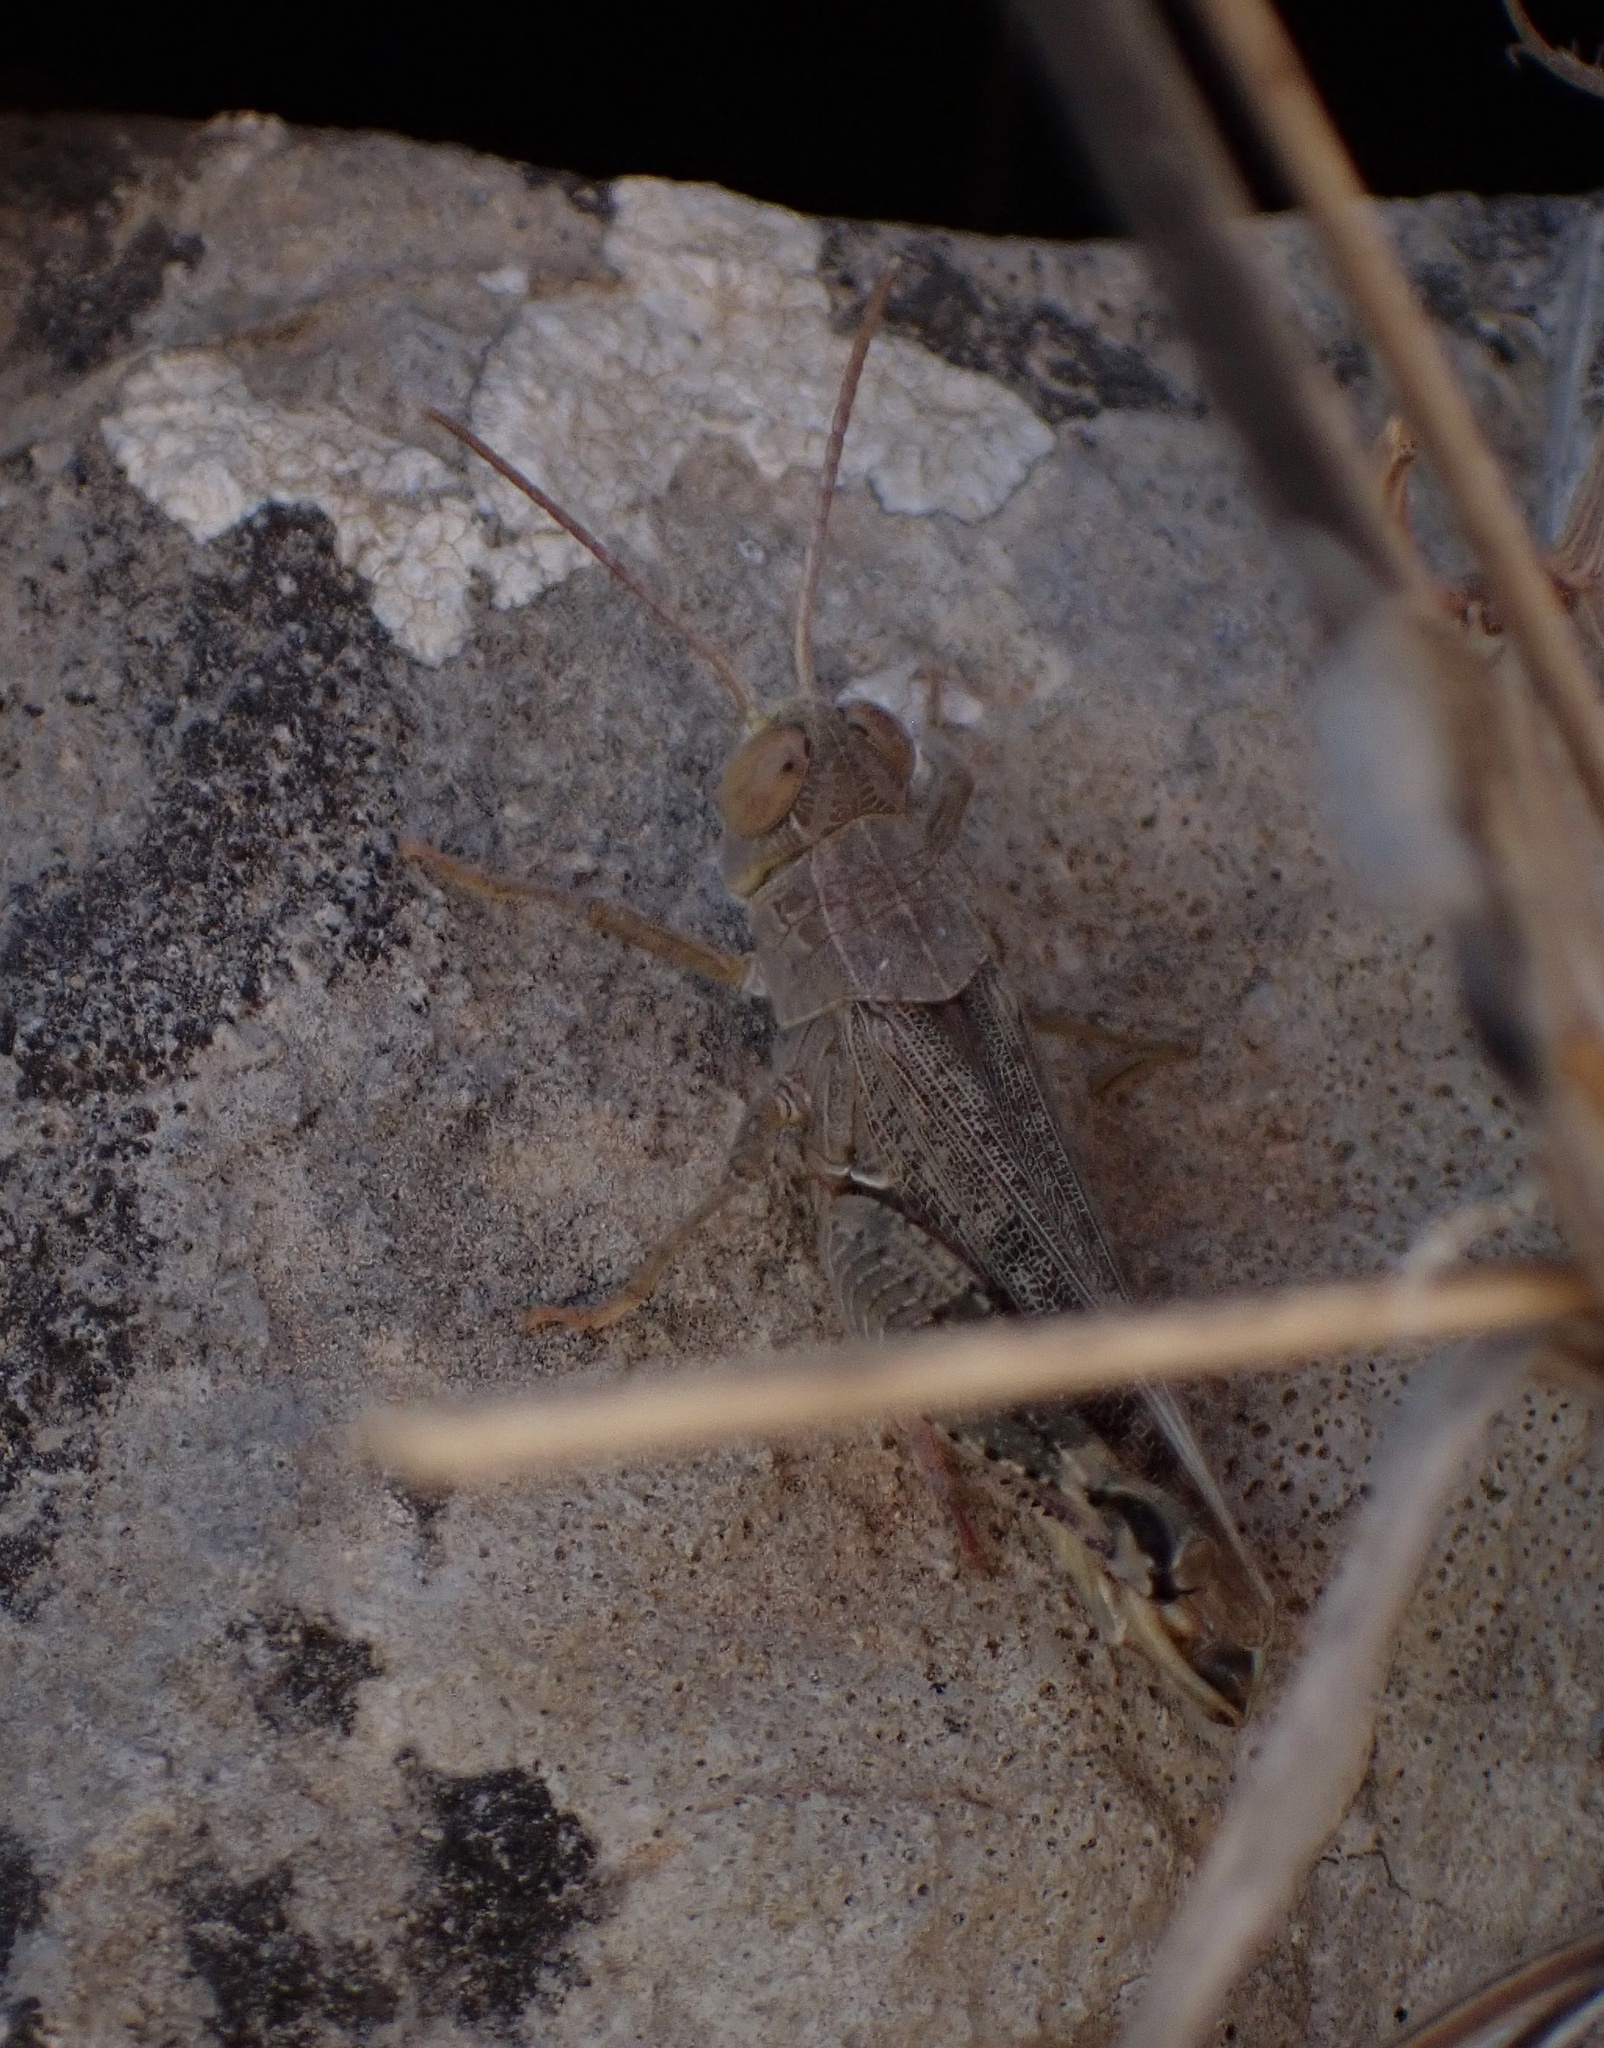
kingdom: Animalia
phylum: Arthropoda
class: Insecta
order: Orthoptera
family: Acrididae
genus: Calliptamus
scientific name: Calliptamus italicus
